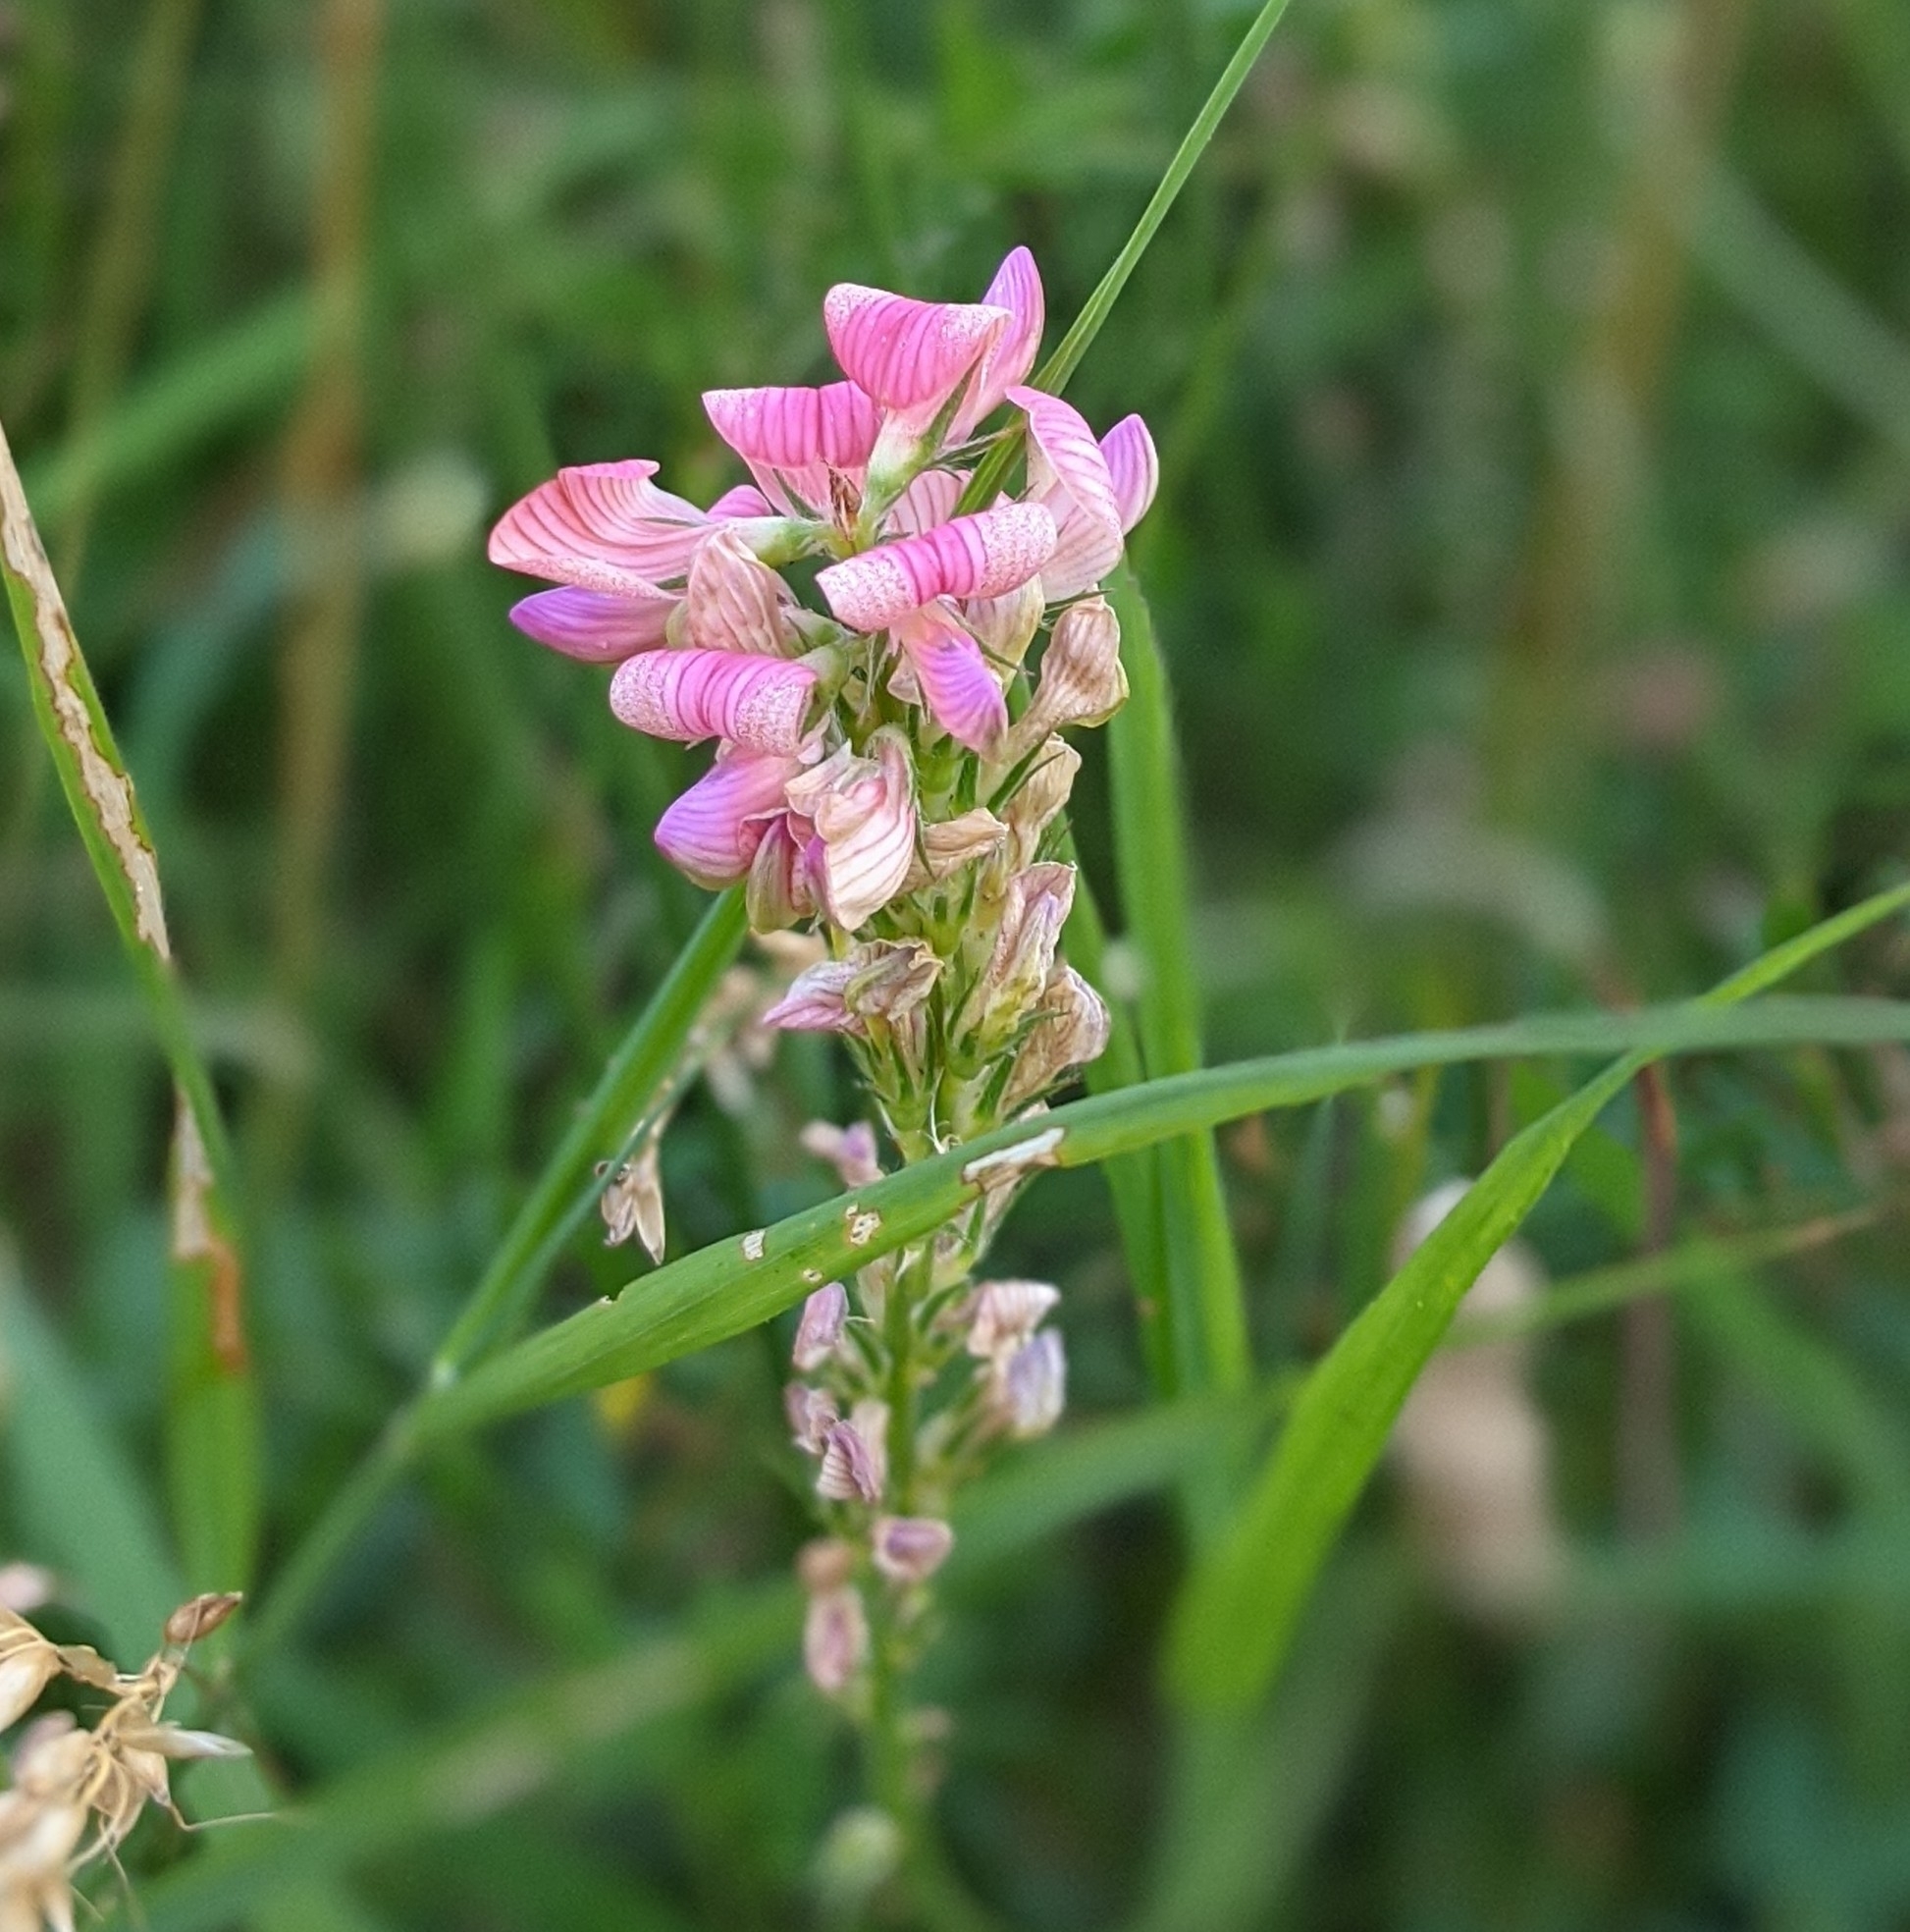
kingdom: Plantae
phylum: Tracheophyta
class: Magnoliopsida
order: Fabales
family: Fabaceae
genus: Onobrychis
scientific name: Onobrychis viciifolia
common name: Sainfoin
